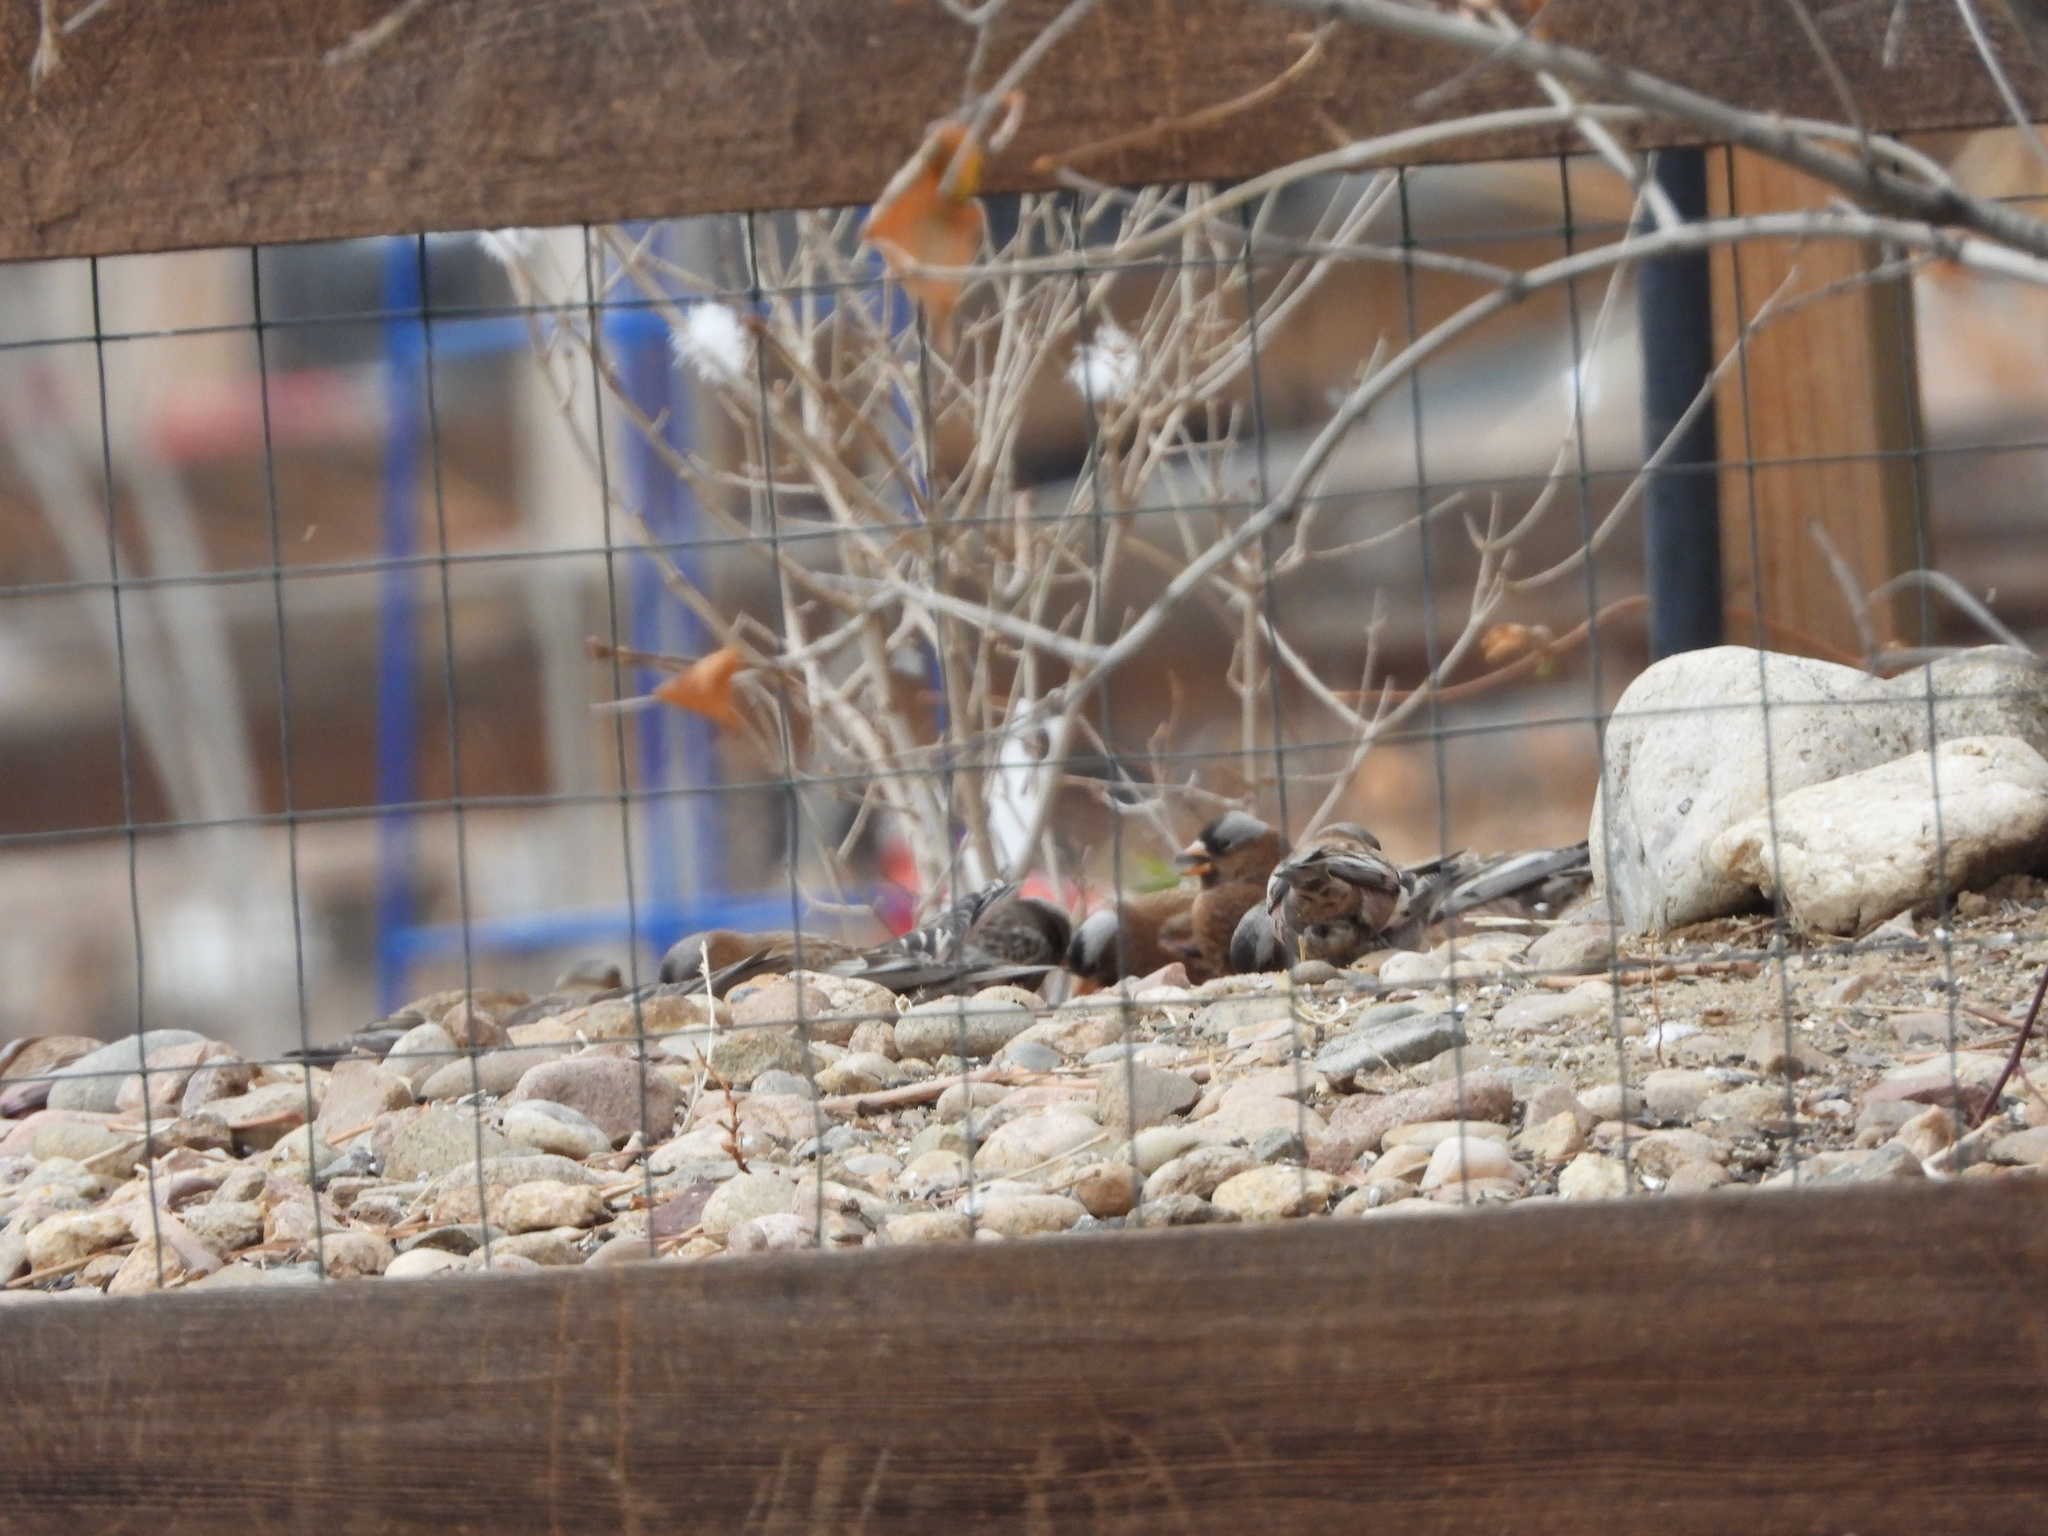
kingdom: Animalia
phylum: Chordata
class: Aves
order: Passeriformes
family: Fringillidae
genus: Leucosticte
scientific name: Leucosticte tephrocotis
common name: Gray-crowned rosy-finch
